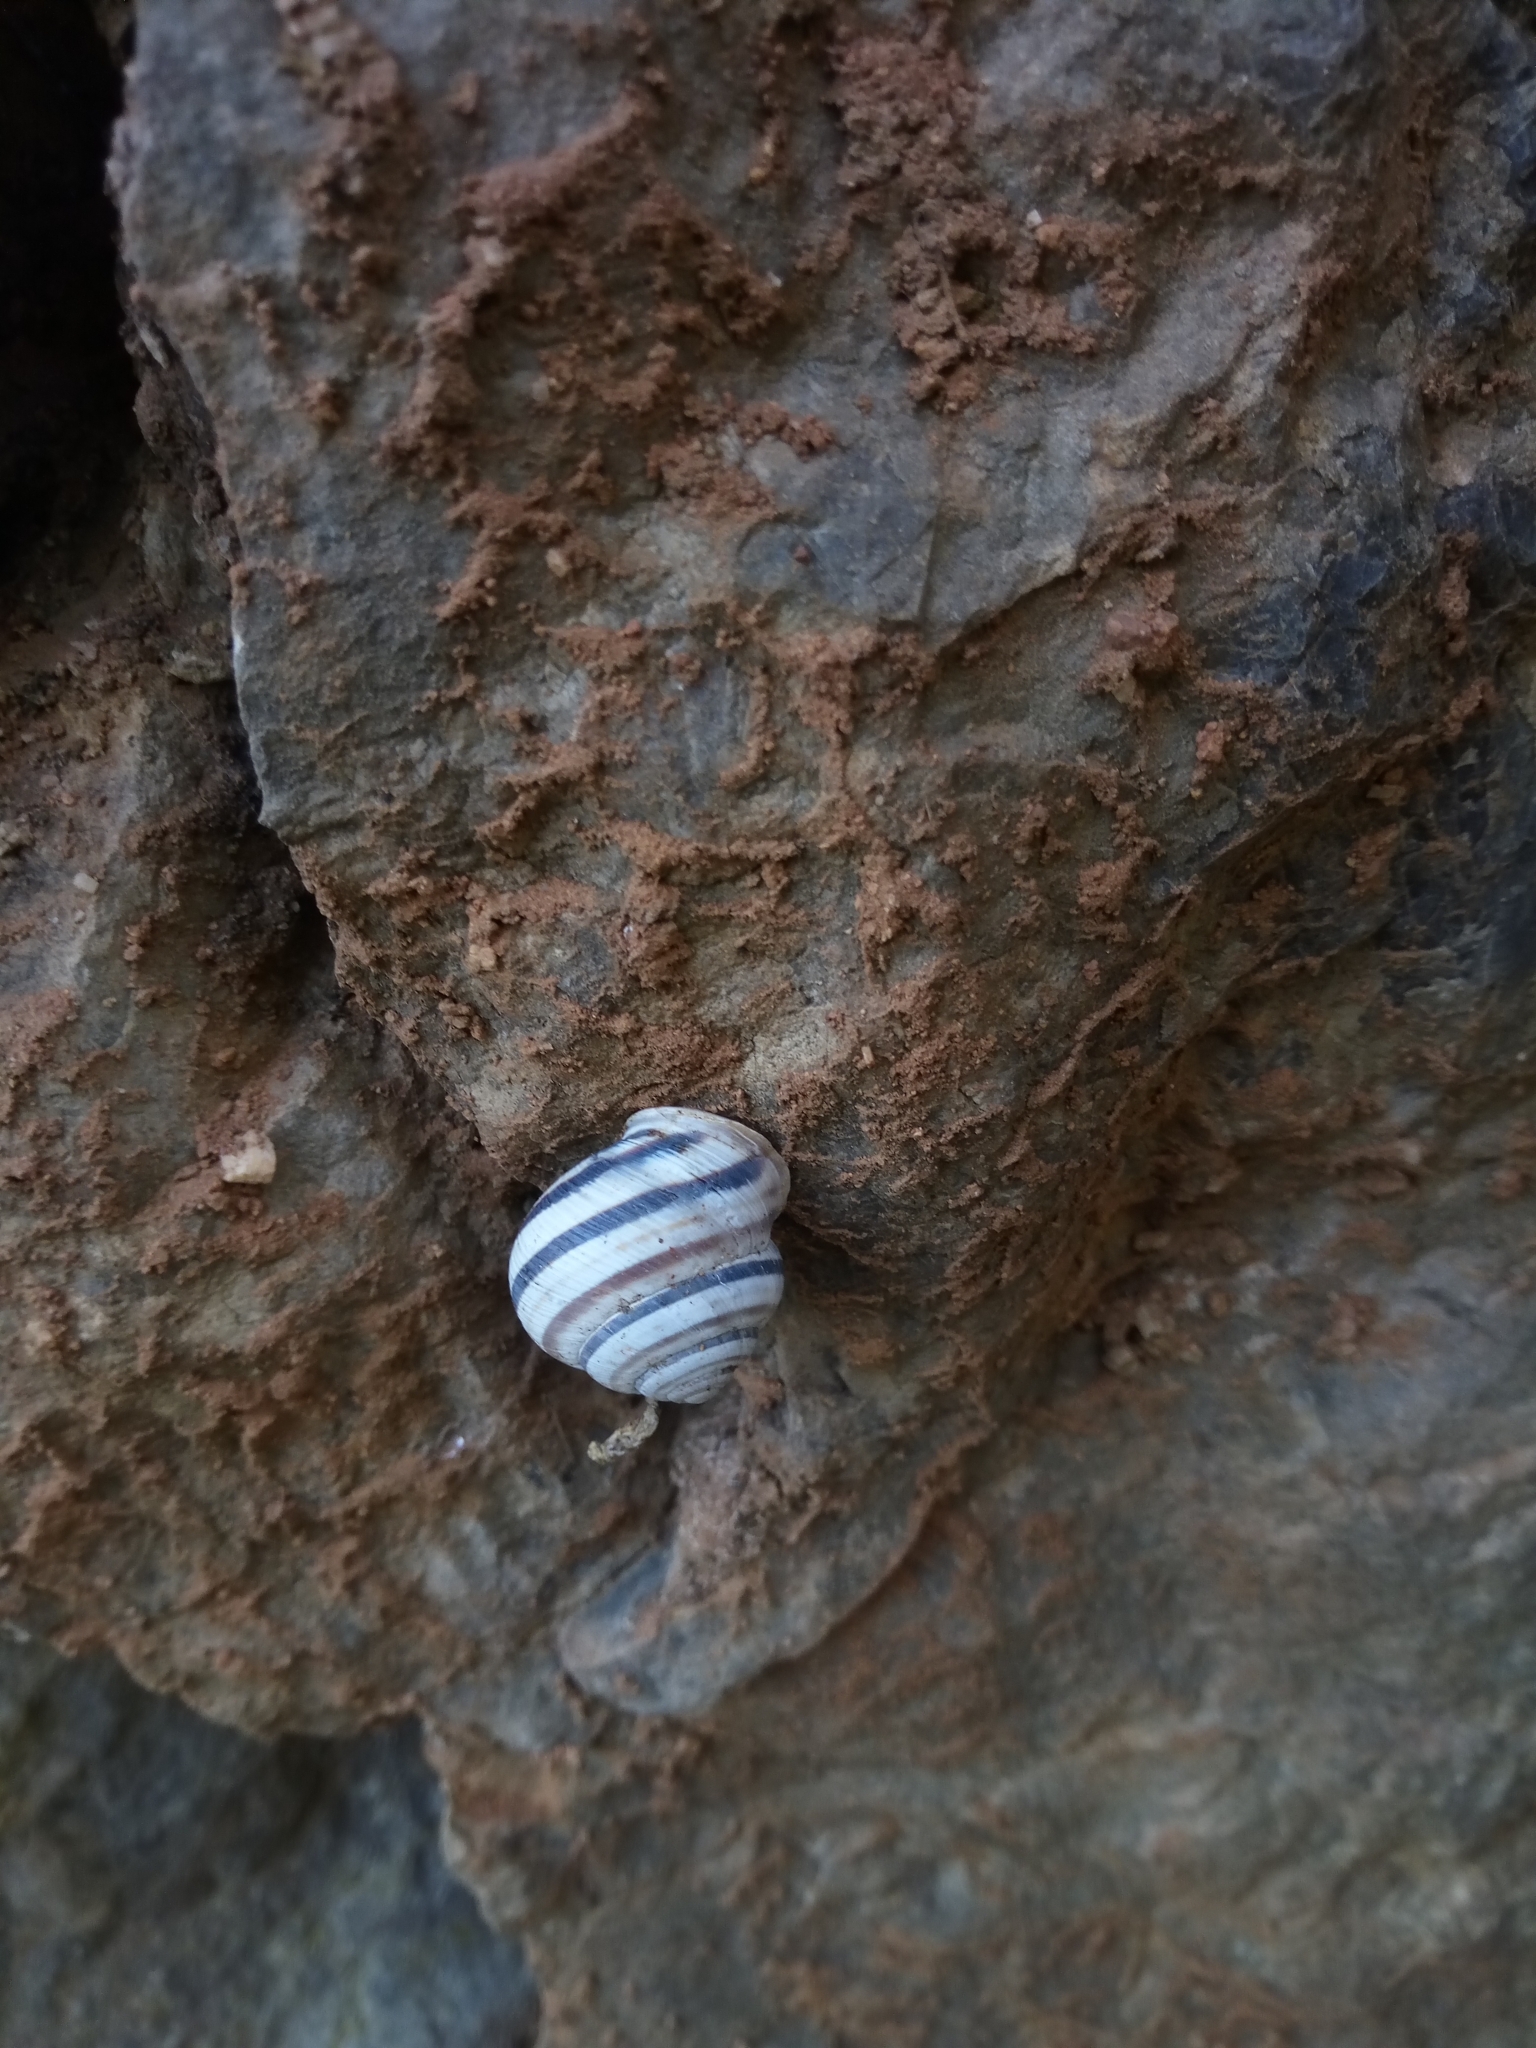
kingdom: Animalia
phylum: Mollusca
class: Gastropoda
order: Stylommatophora
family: Helicidae
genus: Caucasotachea
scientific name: Caucasotachea vindobonensis
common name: European helicid land snail
